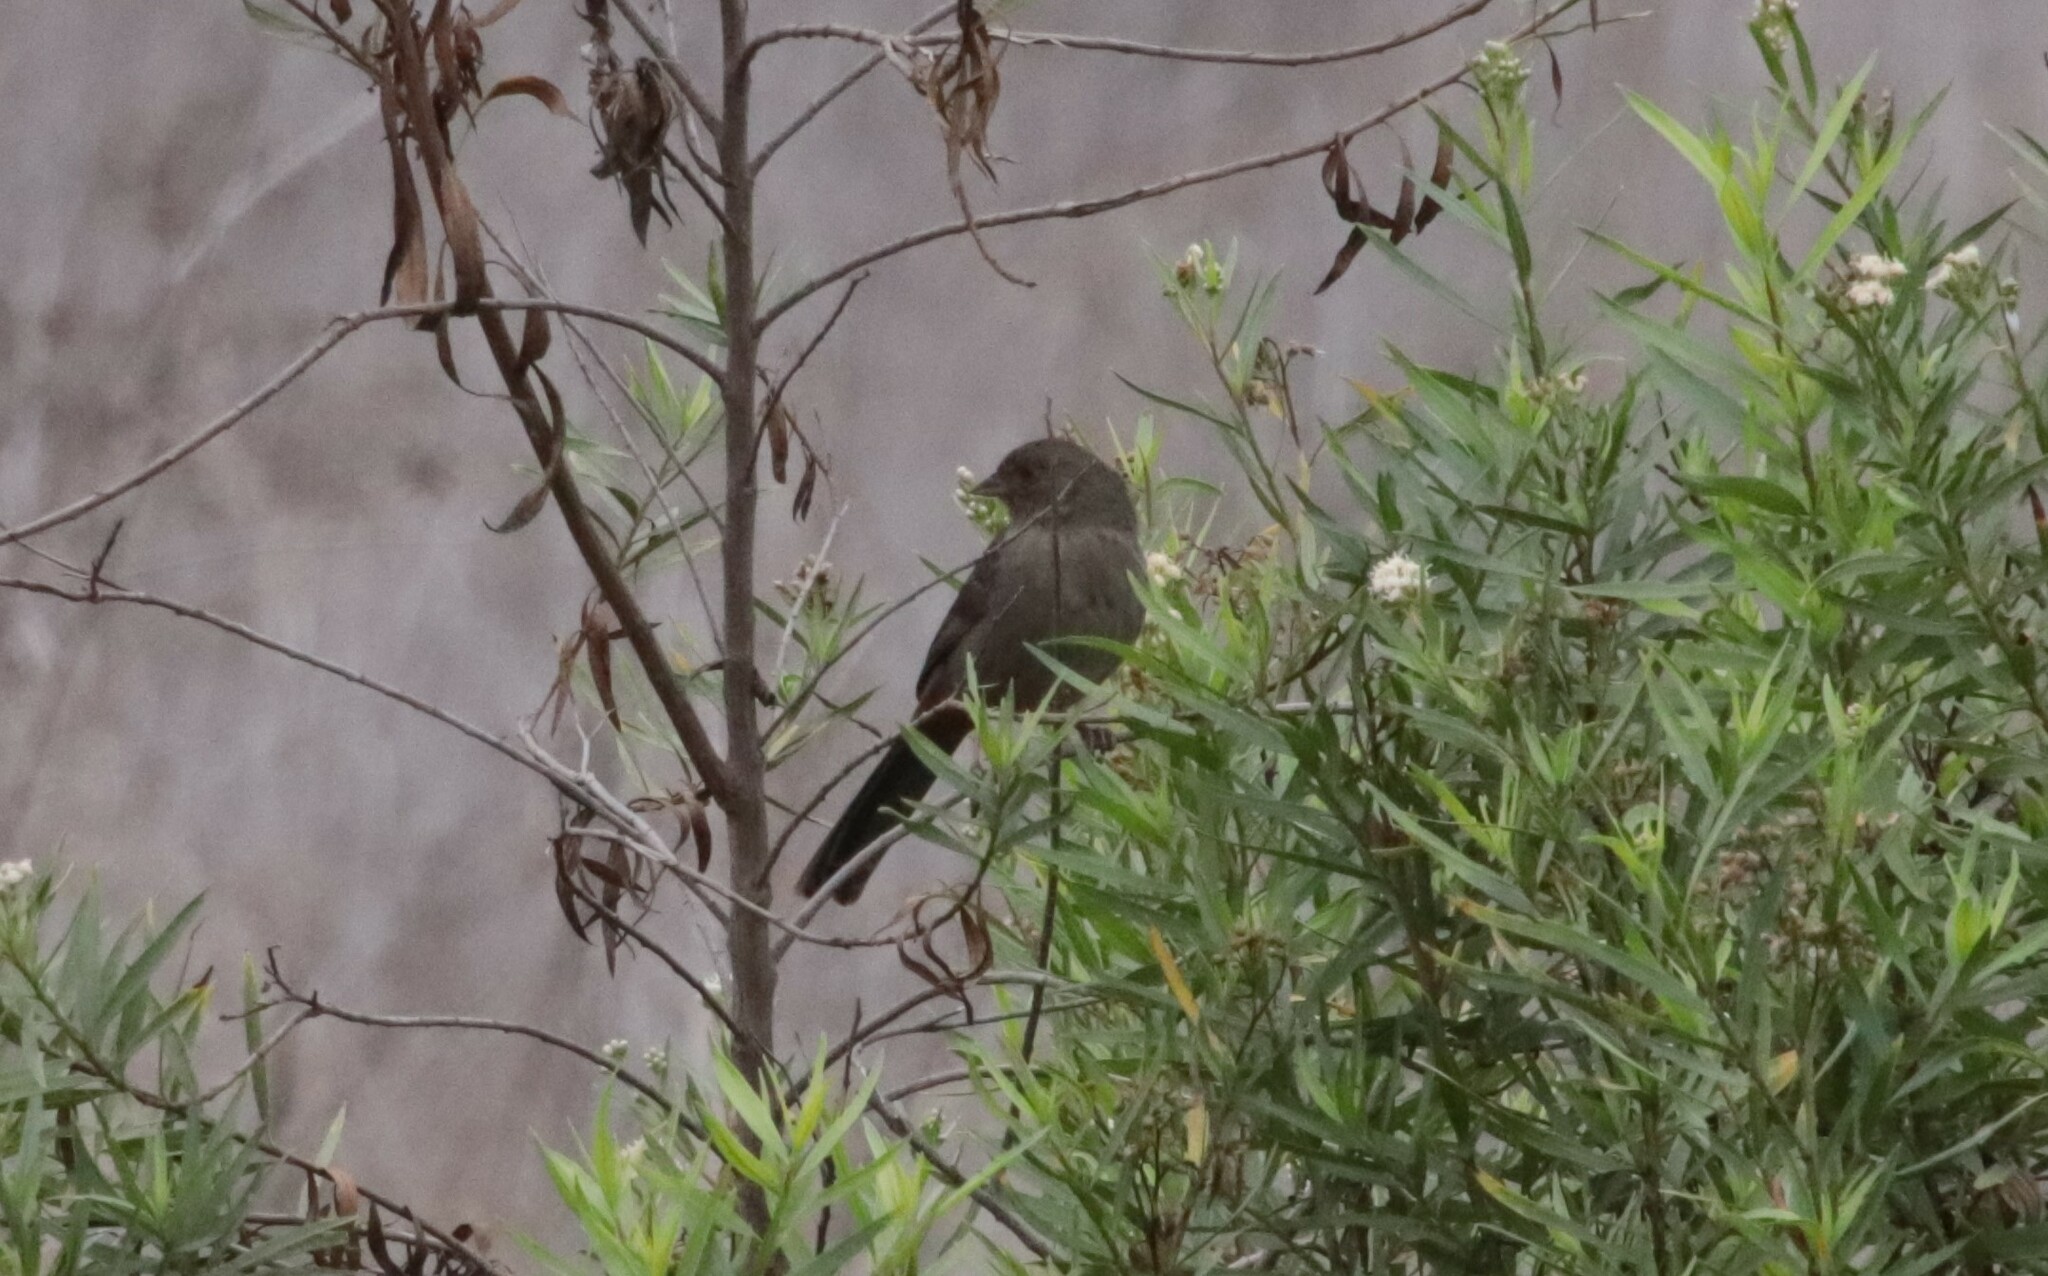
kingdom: Animalia
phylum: Chordata
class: Aves
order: Passeriformes
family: Passerellidae
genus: Melozone
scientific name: Melozone crissalis
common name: California towhee
